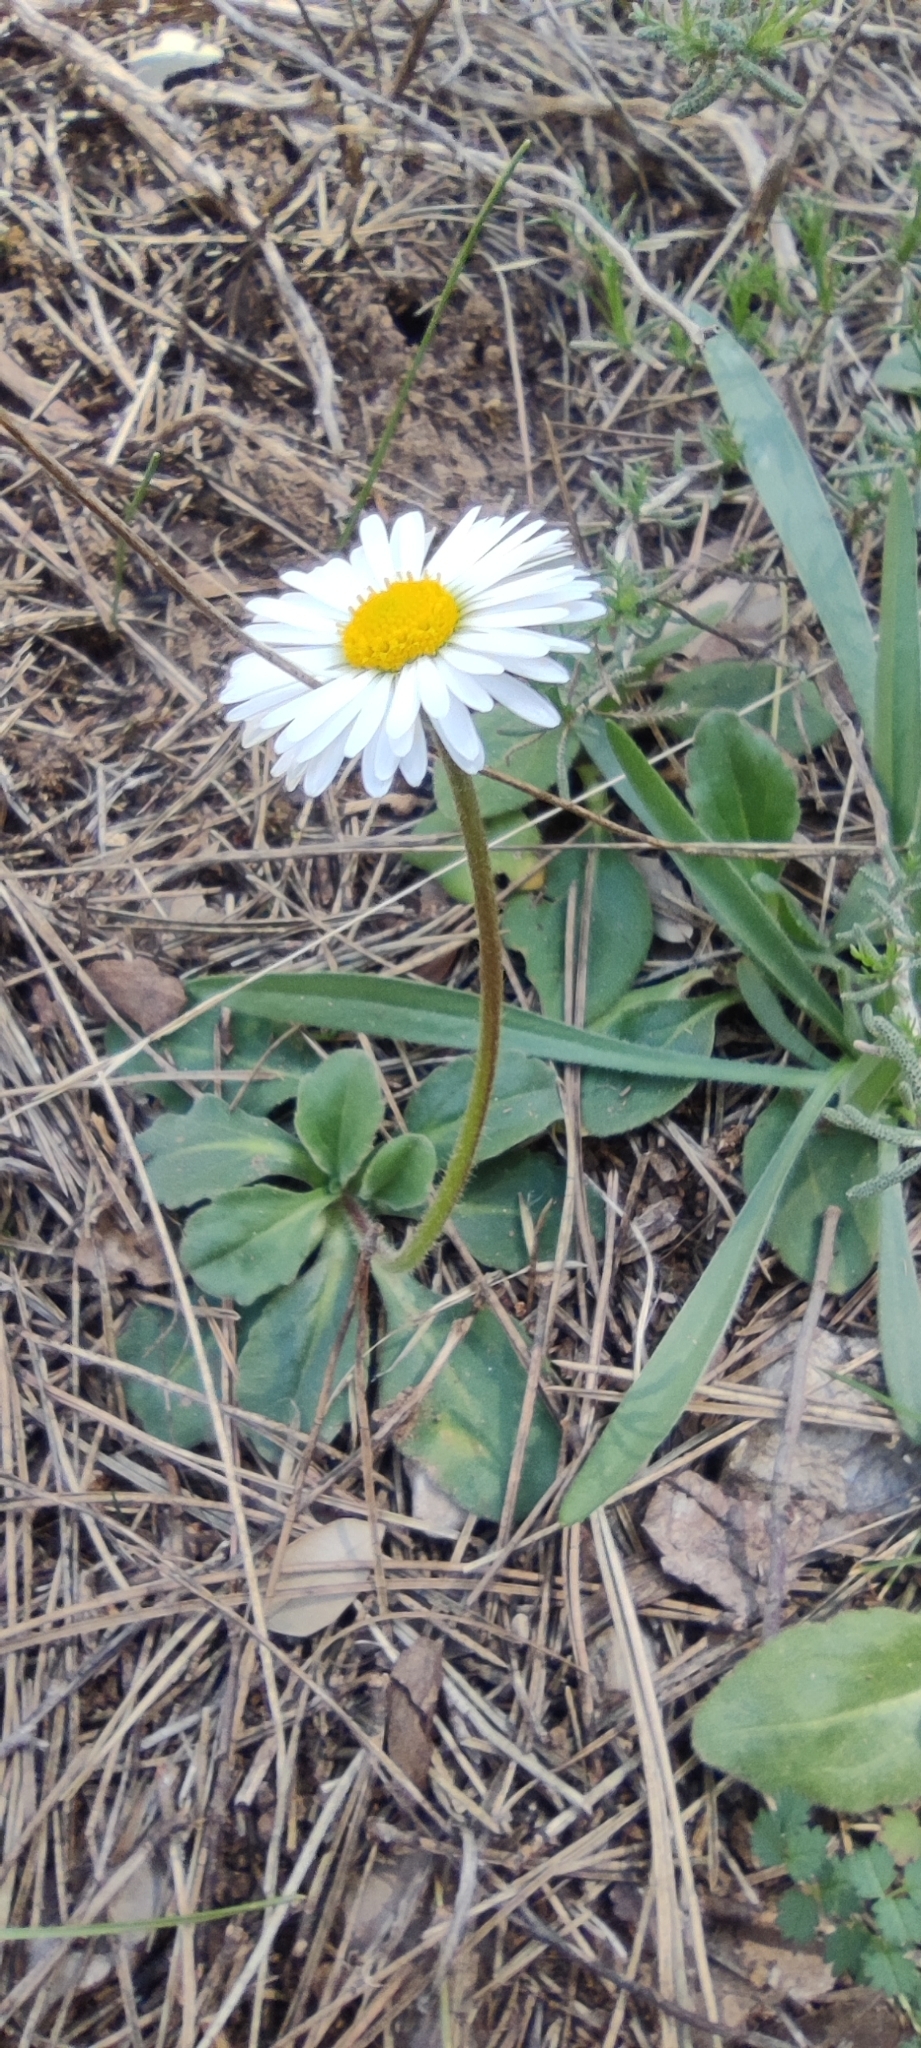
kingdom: Plantae
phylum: Tracheophyta
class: Magnoliopsida
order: Asterales
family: Asteraceae
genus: Bellis
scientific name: Bellis sylvestris
